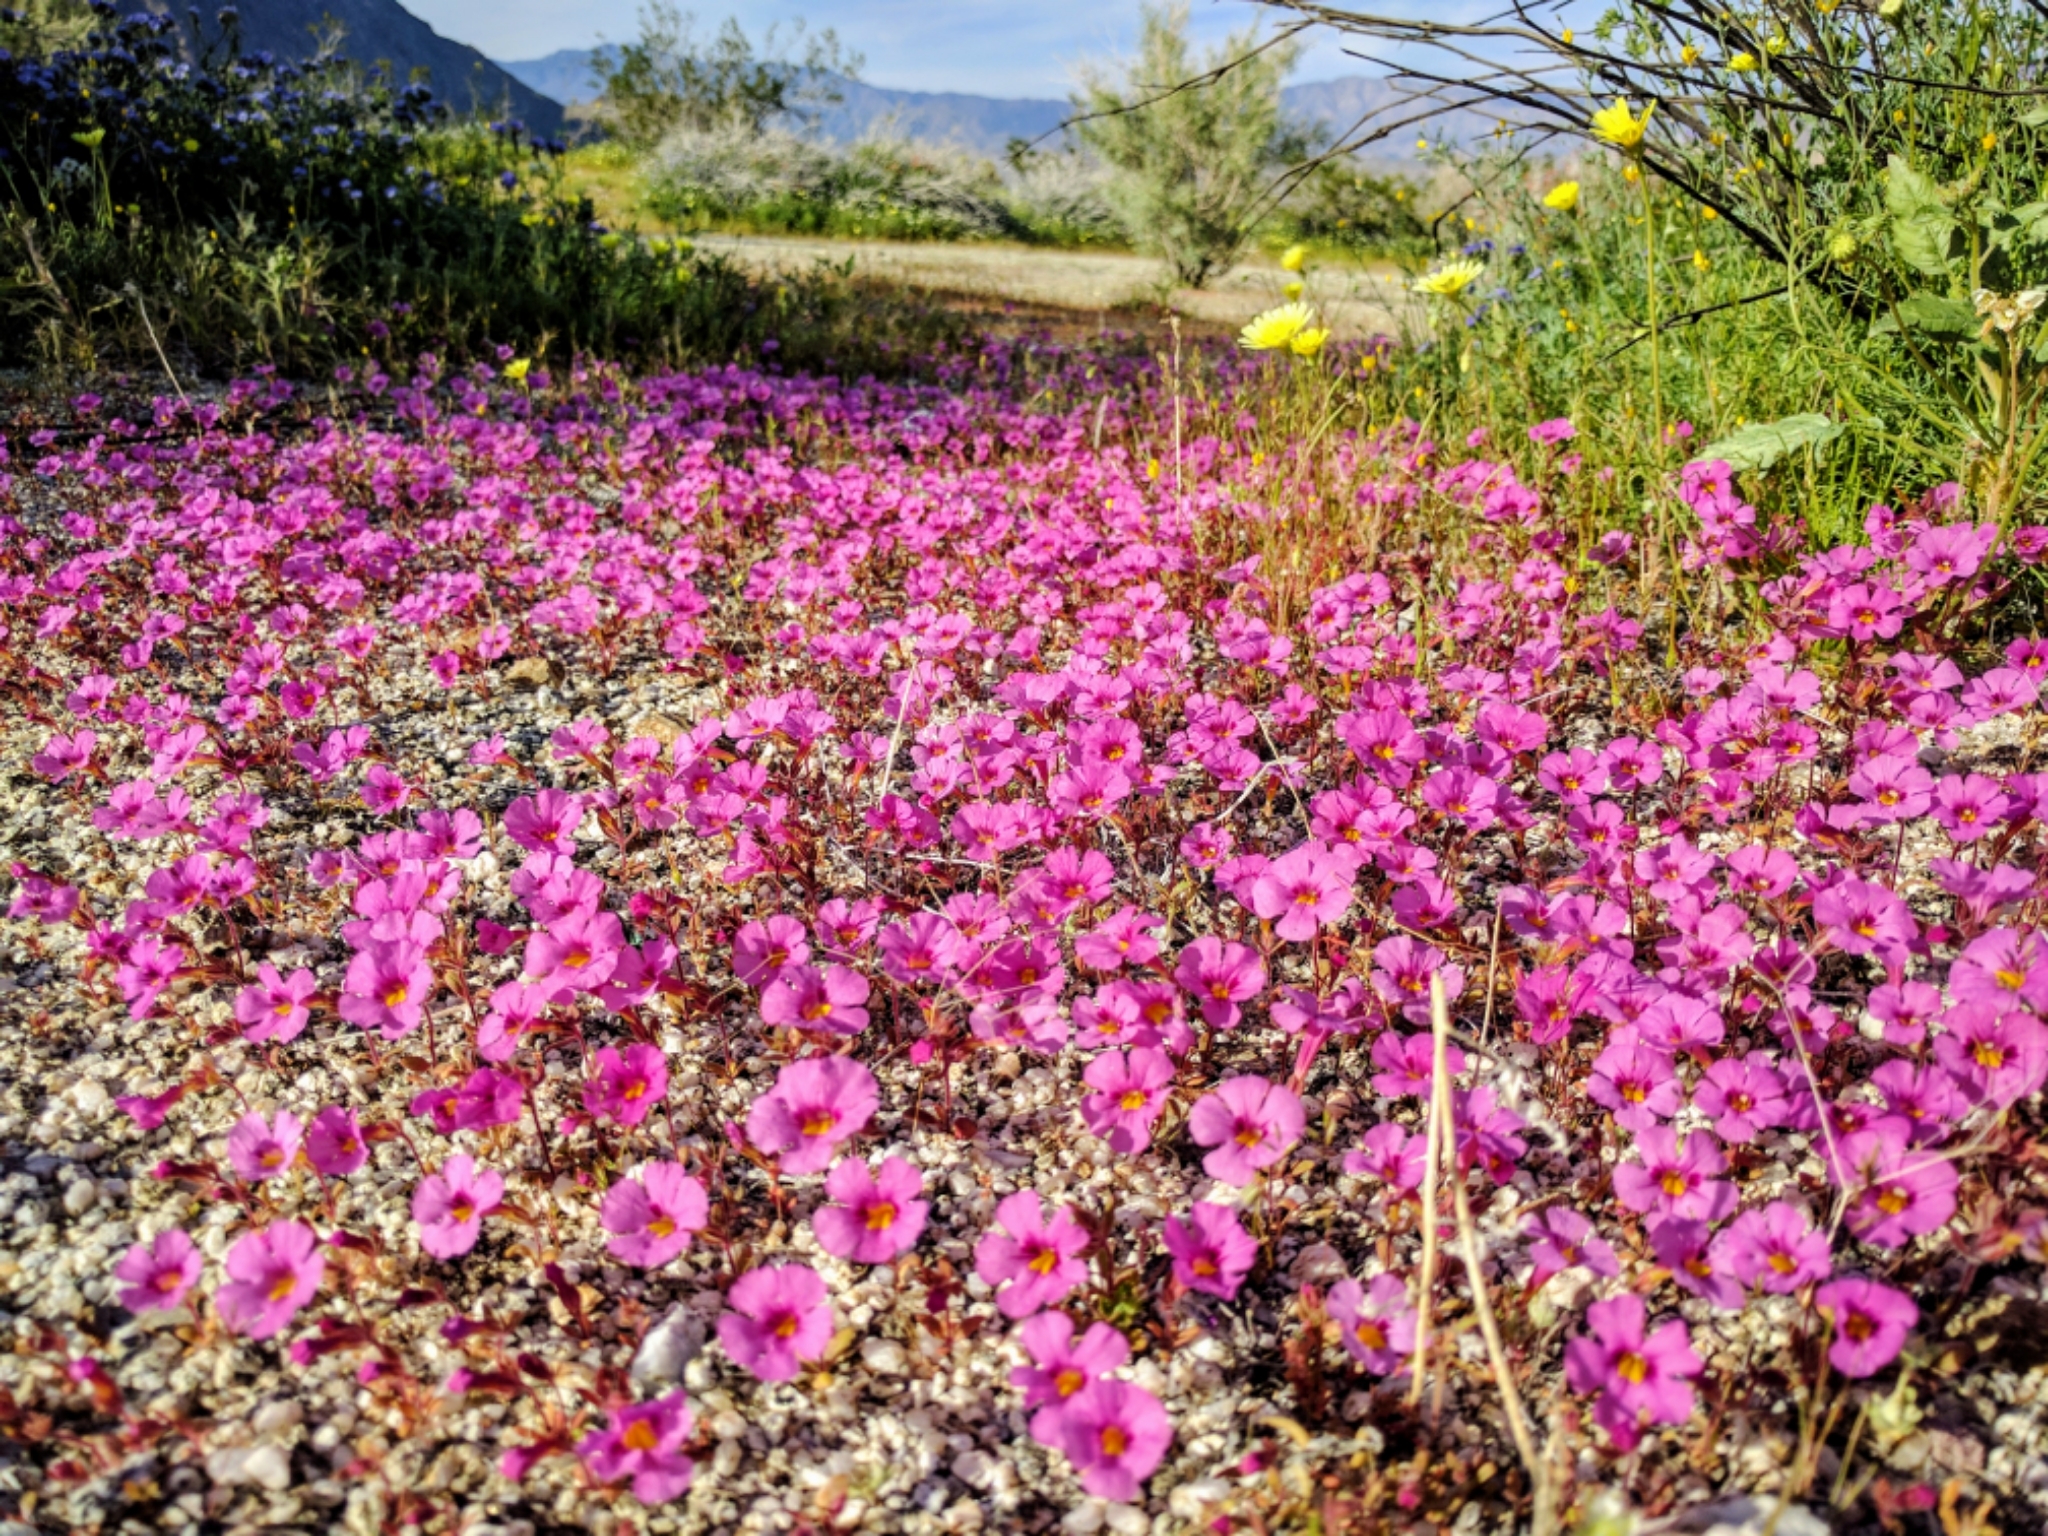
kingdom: Plantae
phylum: Tracheophyta
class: Magnoliopsida
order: Lamiales
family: Phrymaceae
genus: Diplacus
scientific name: Diplacus bigelovii
